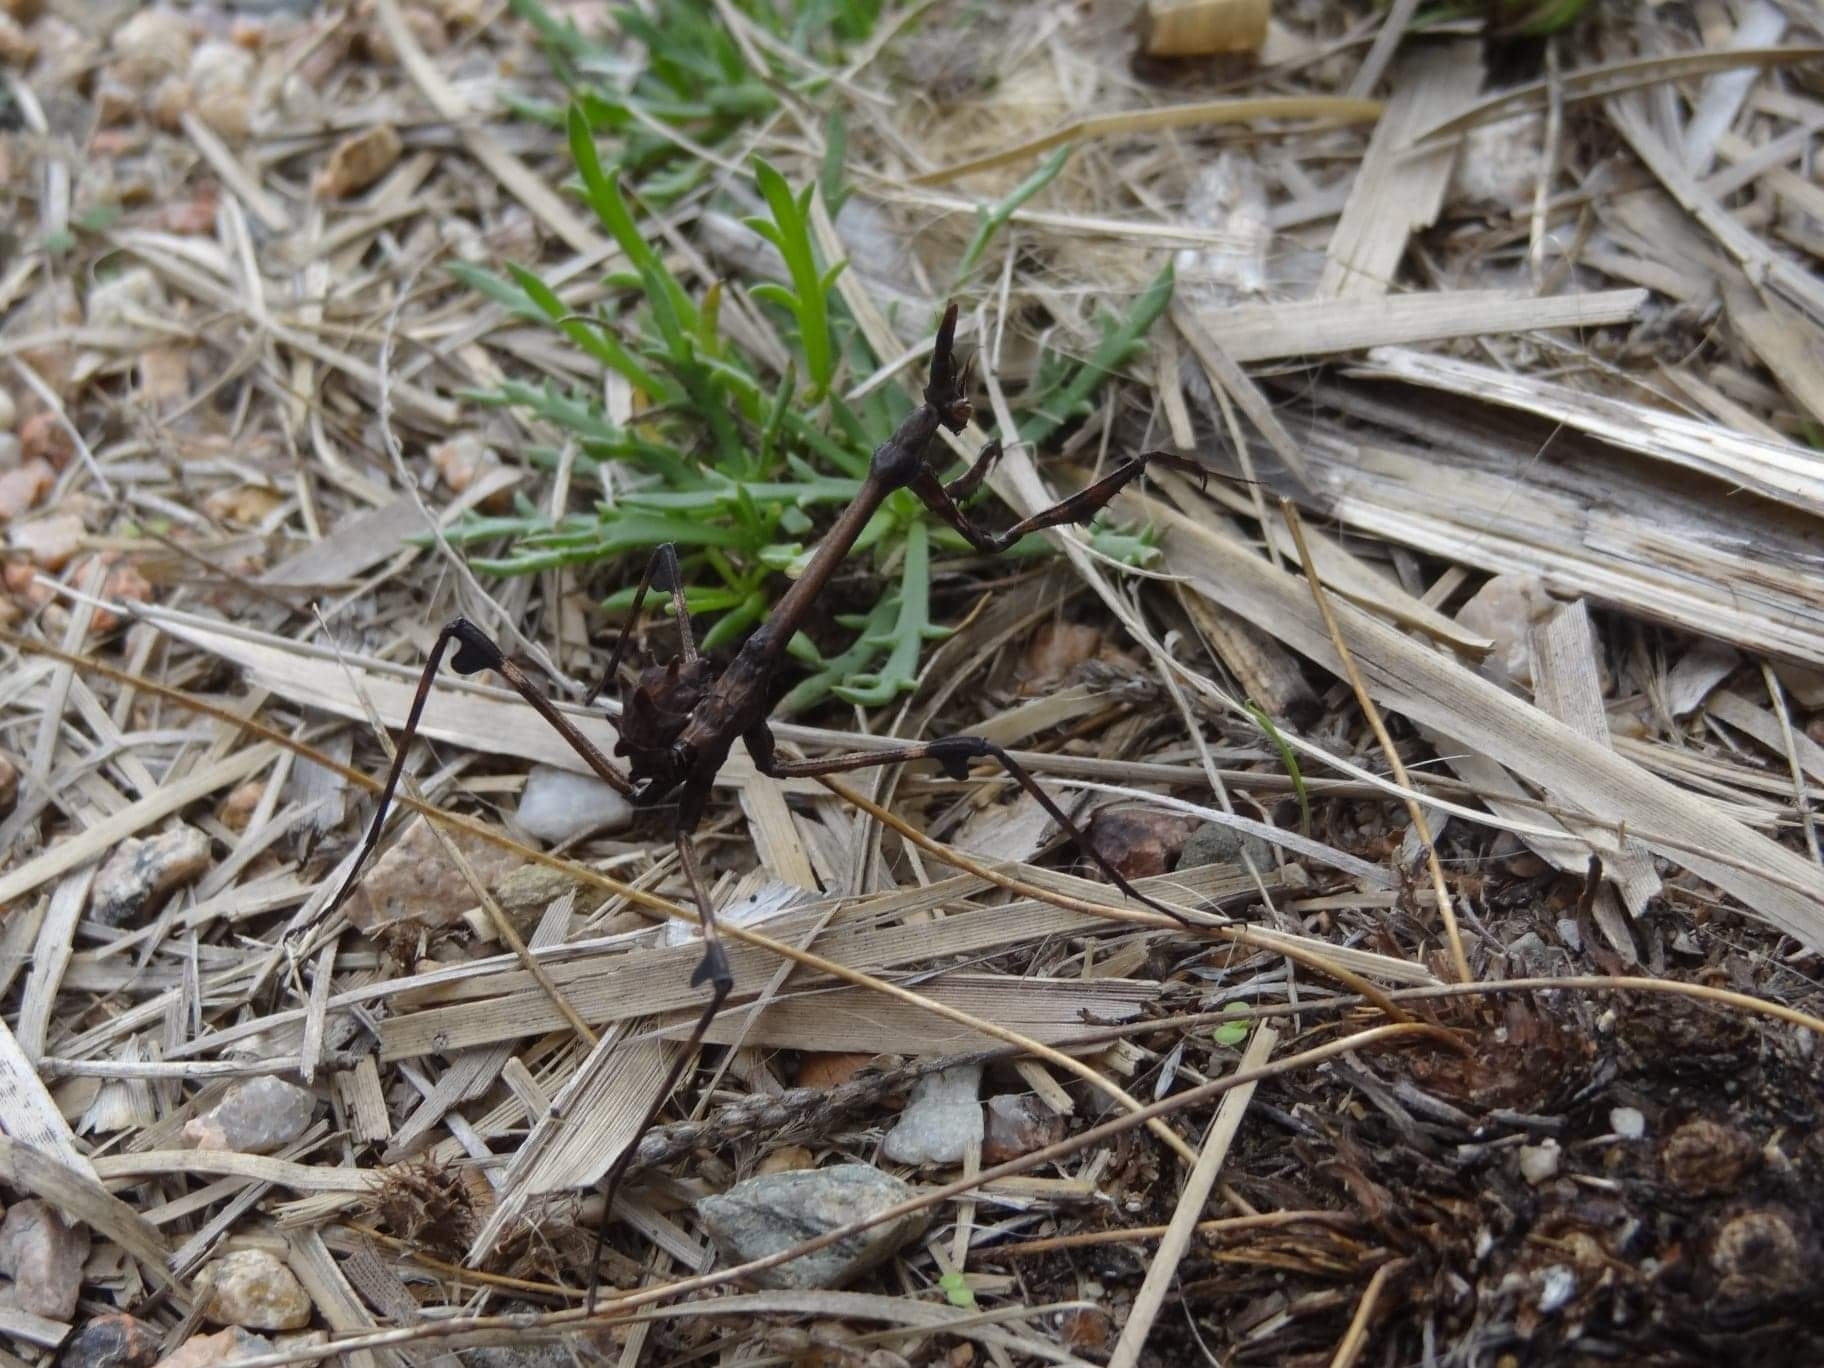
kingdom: Animalia
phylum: Arthropoda
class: Insecta
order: Mantodea
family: Empusidae
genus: Empusa
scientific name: Empusa pennata
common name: Conehead mantis
